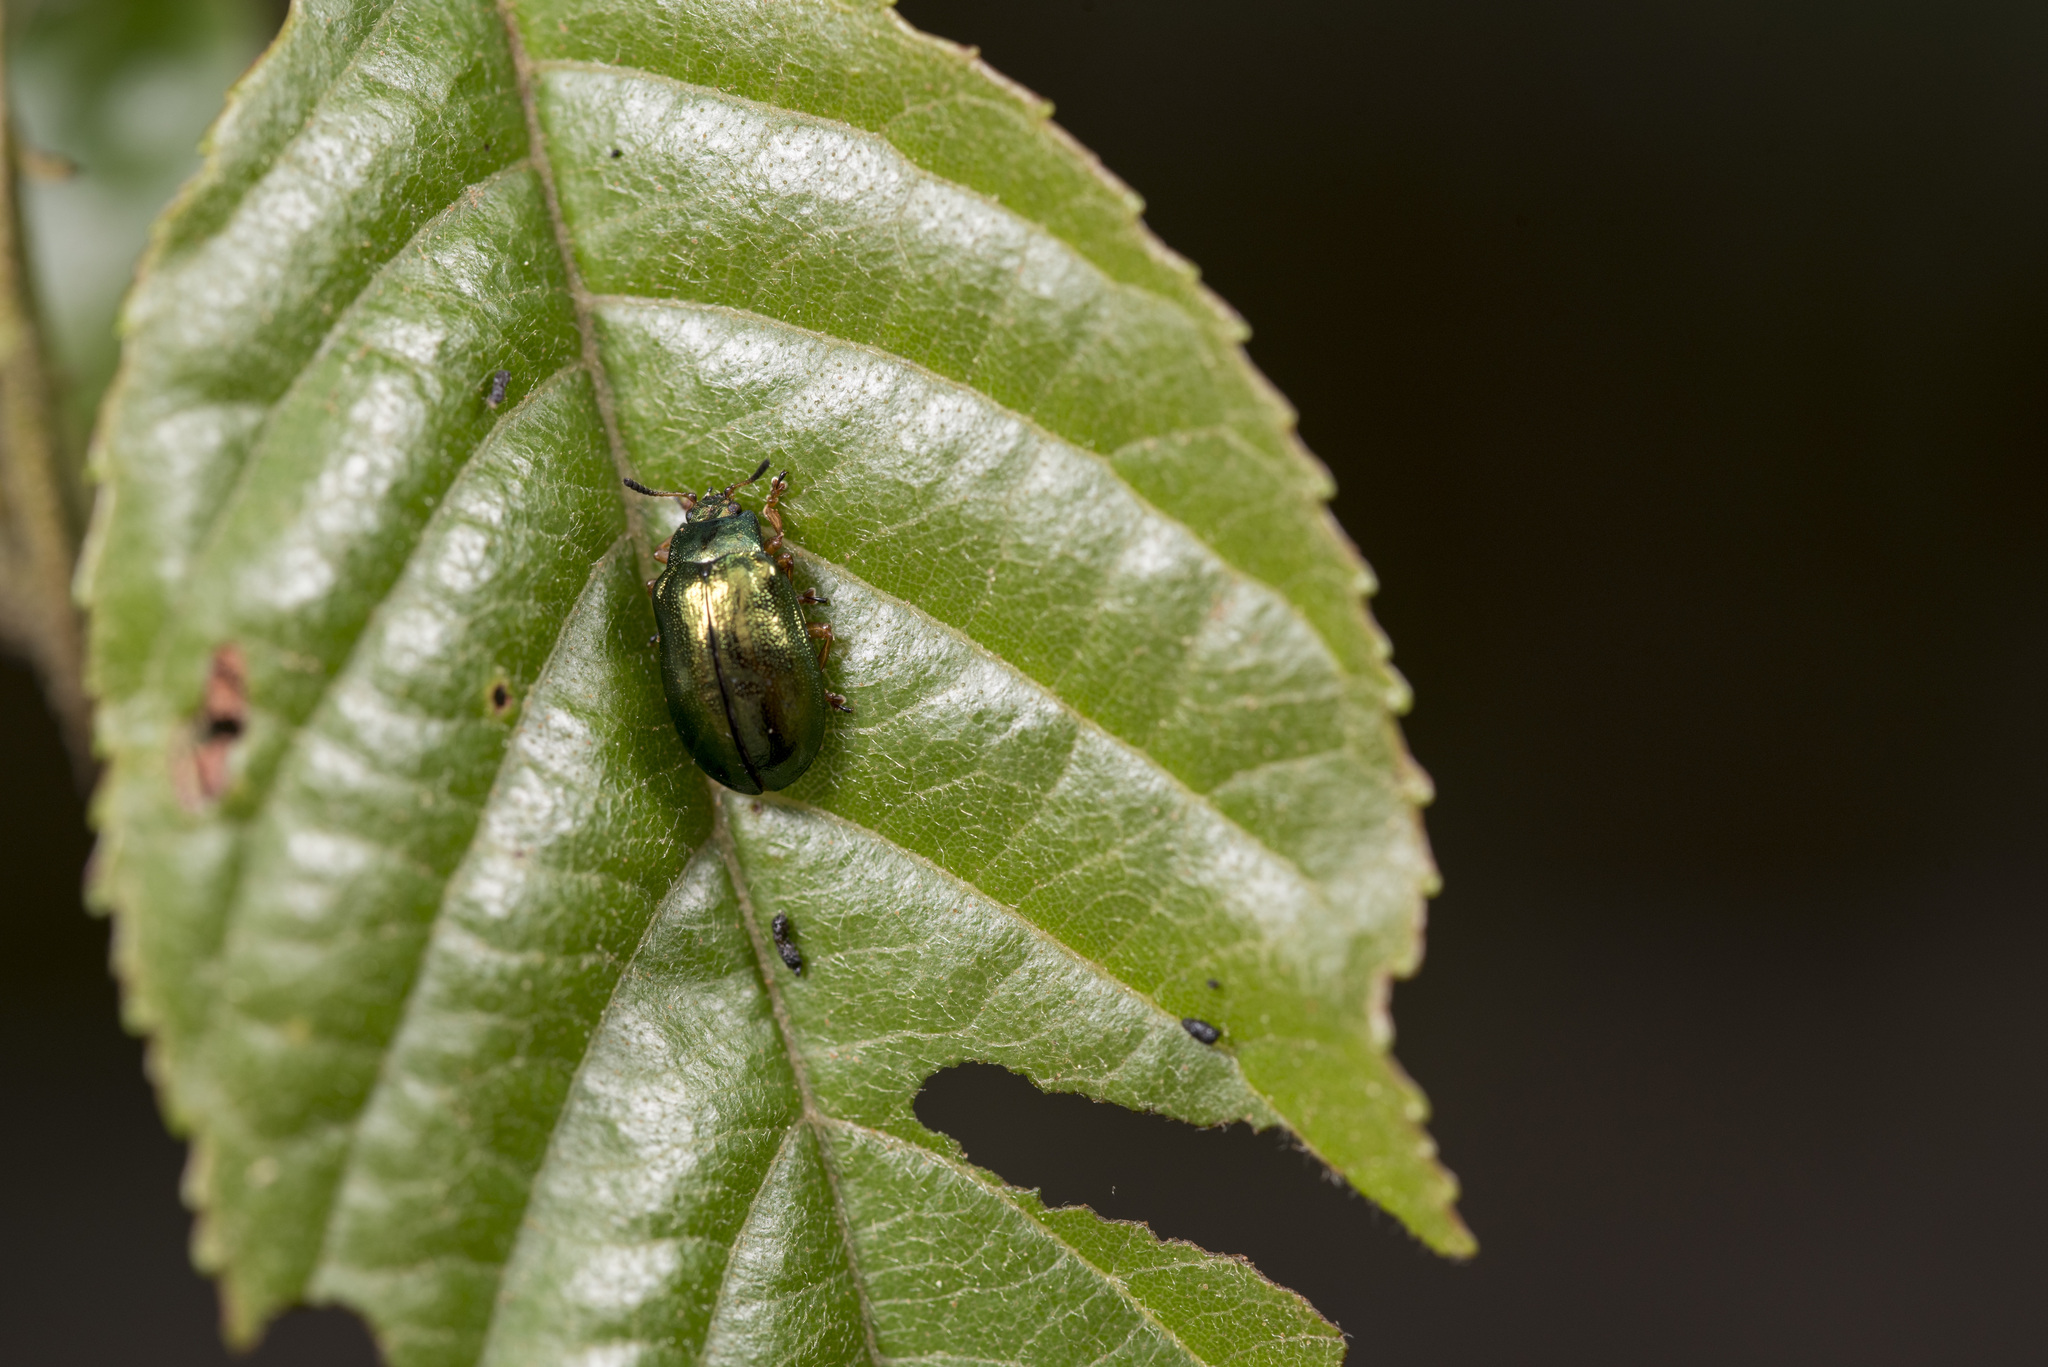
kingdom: Animalia
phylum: Arthropoda
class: Insecta
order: Coleoptera
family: Chrysomelidae
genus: Plagiosterna
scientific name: Plagiosterna aenea
